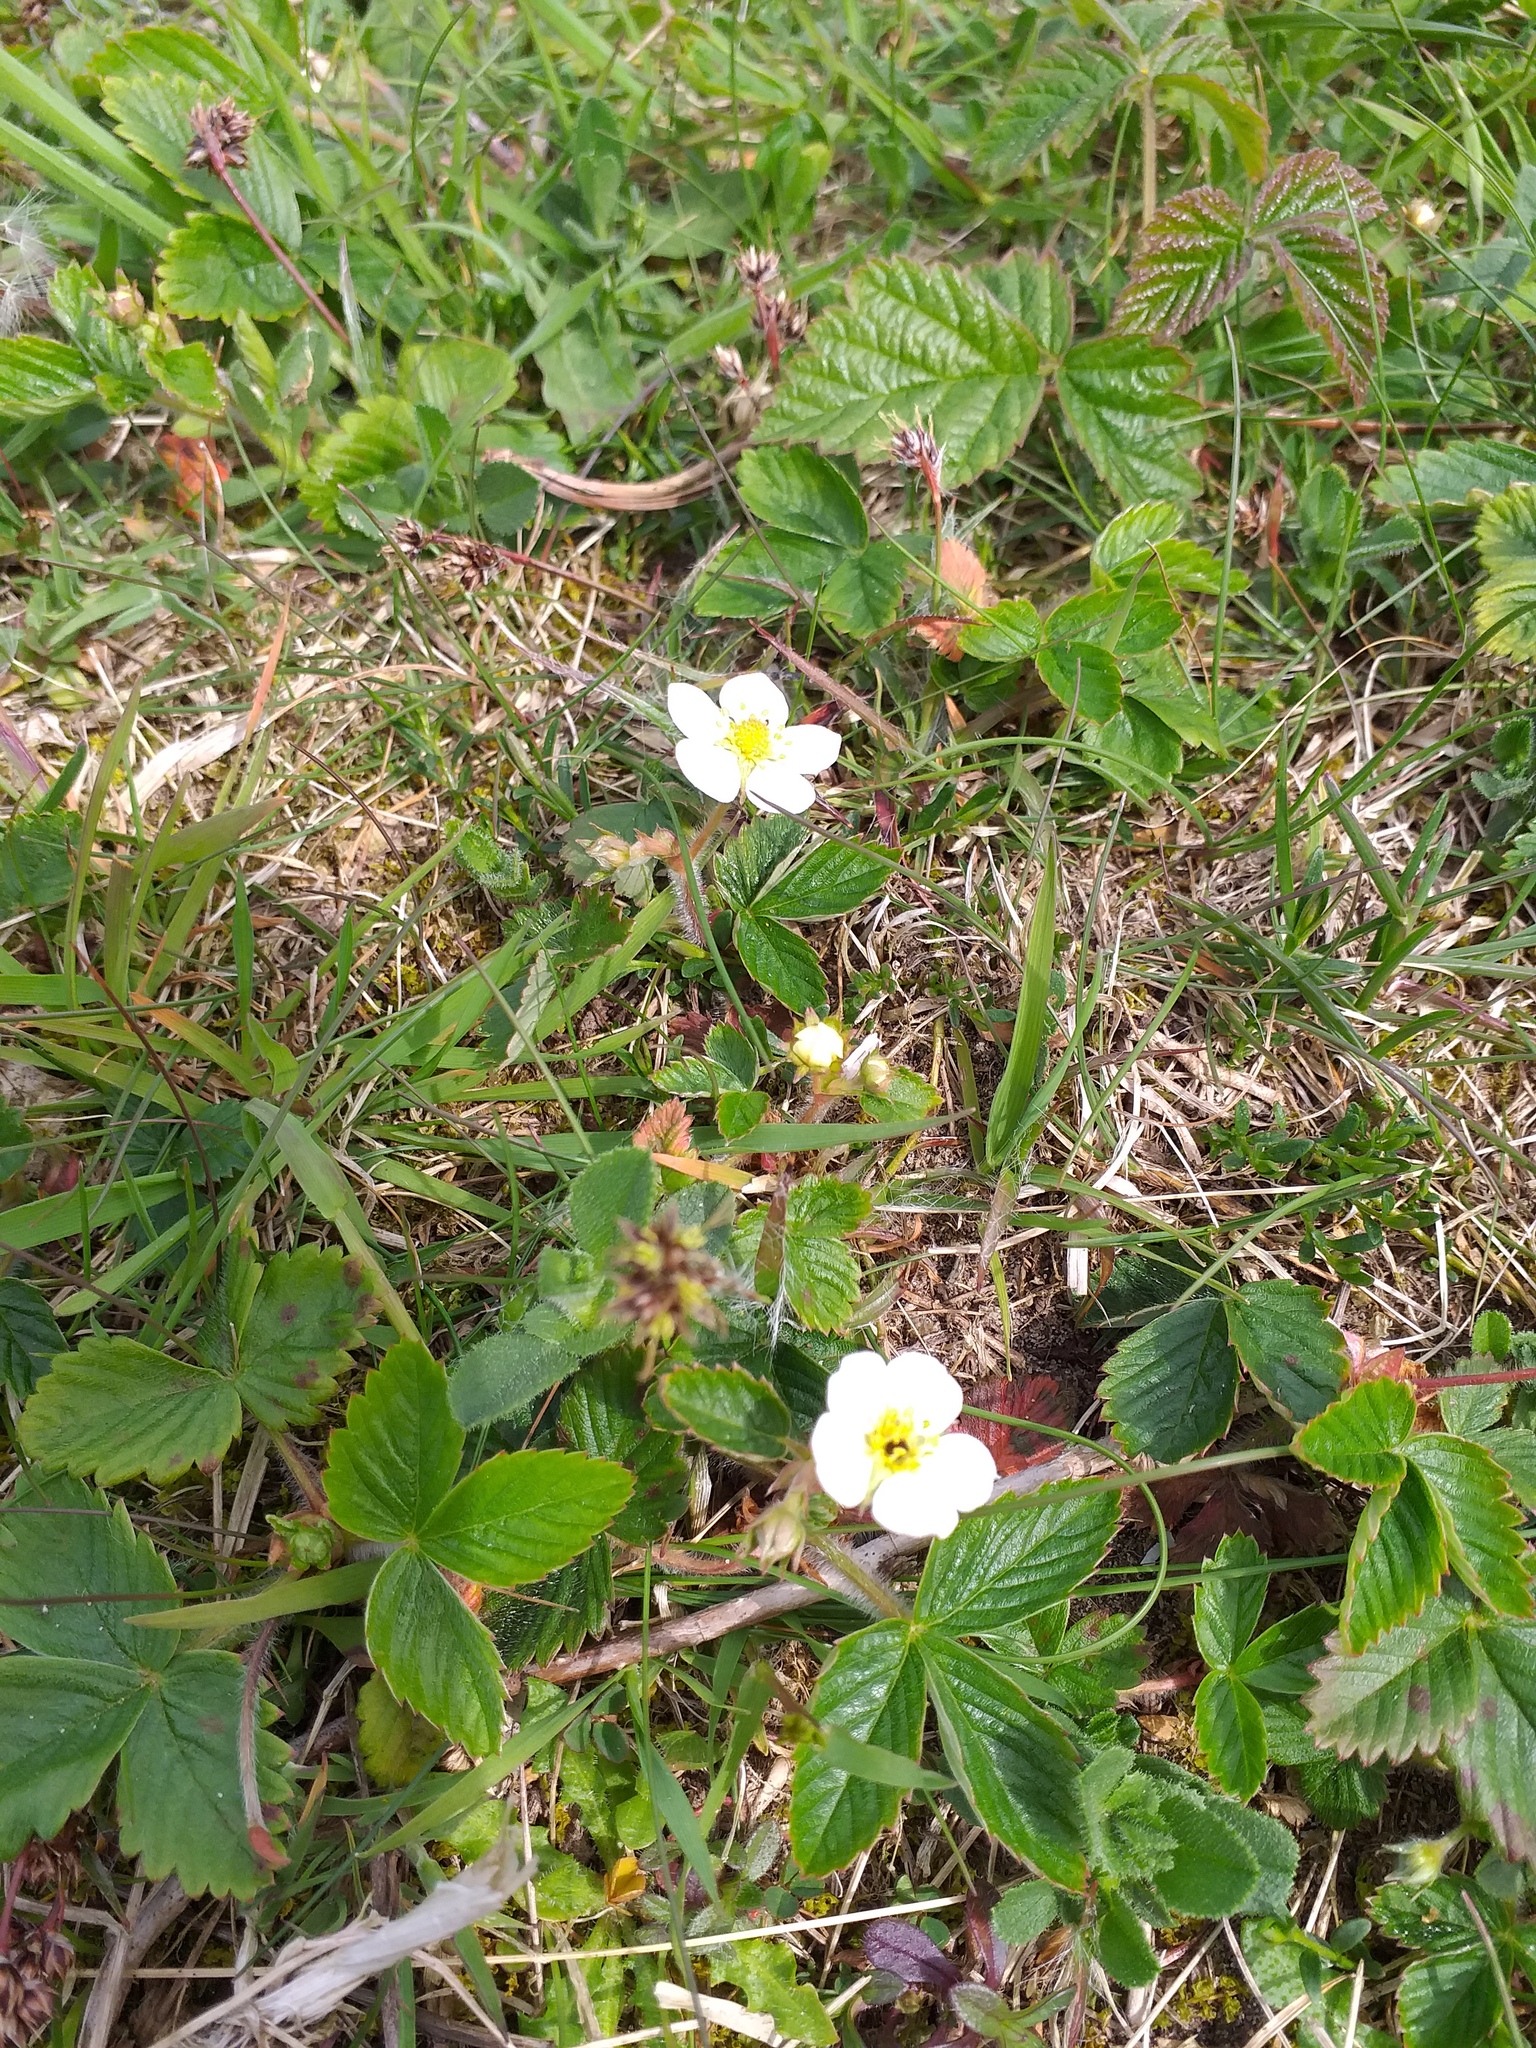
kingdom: Plantae
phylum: Tracheophyta
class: Magnoliopsida
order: Rosales
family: Rosaceae
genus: Fragaria
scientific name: Fragaria vesca
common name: Wild strawberry
